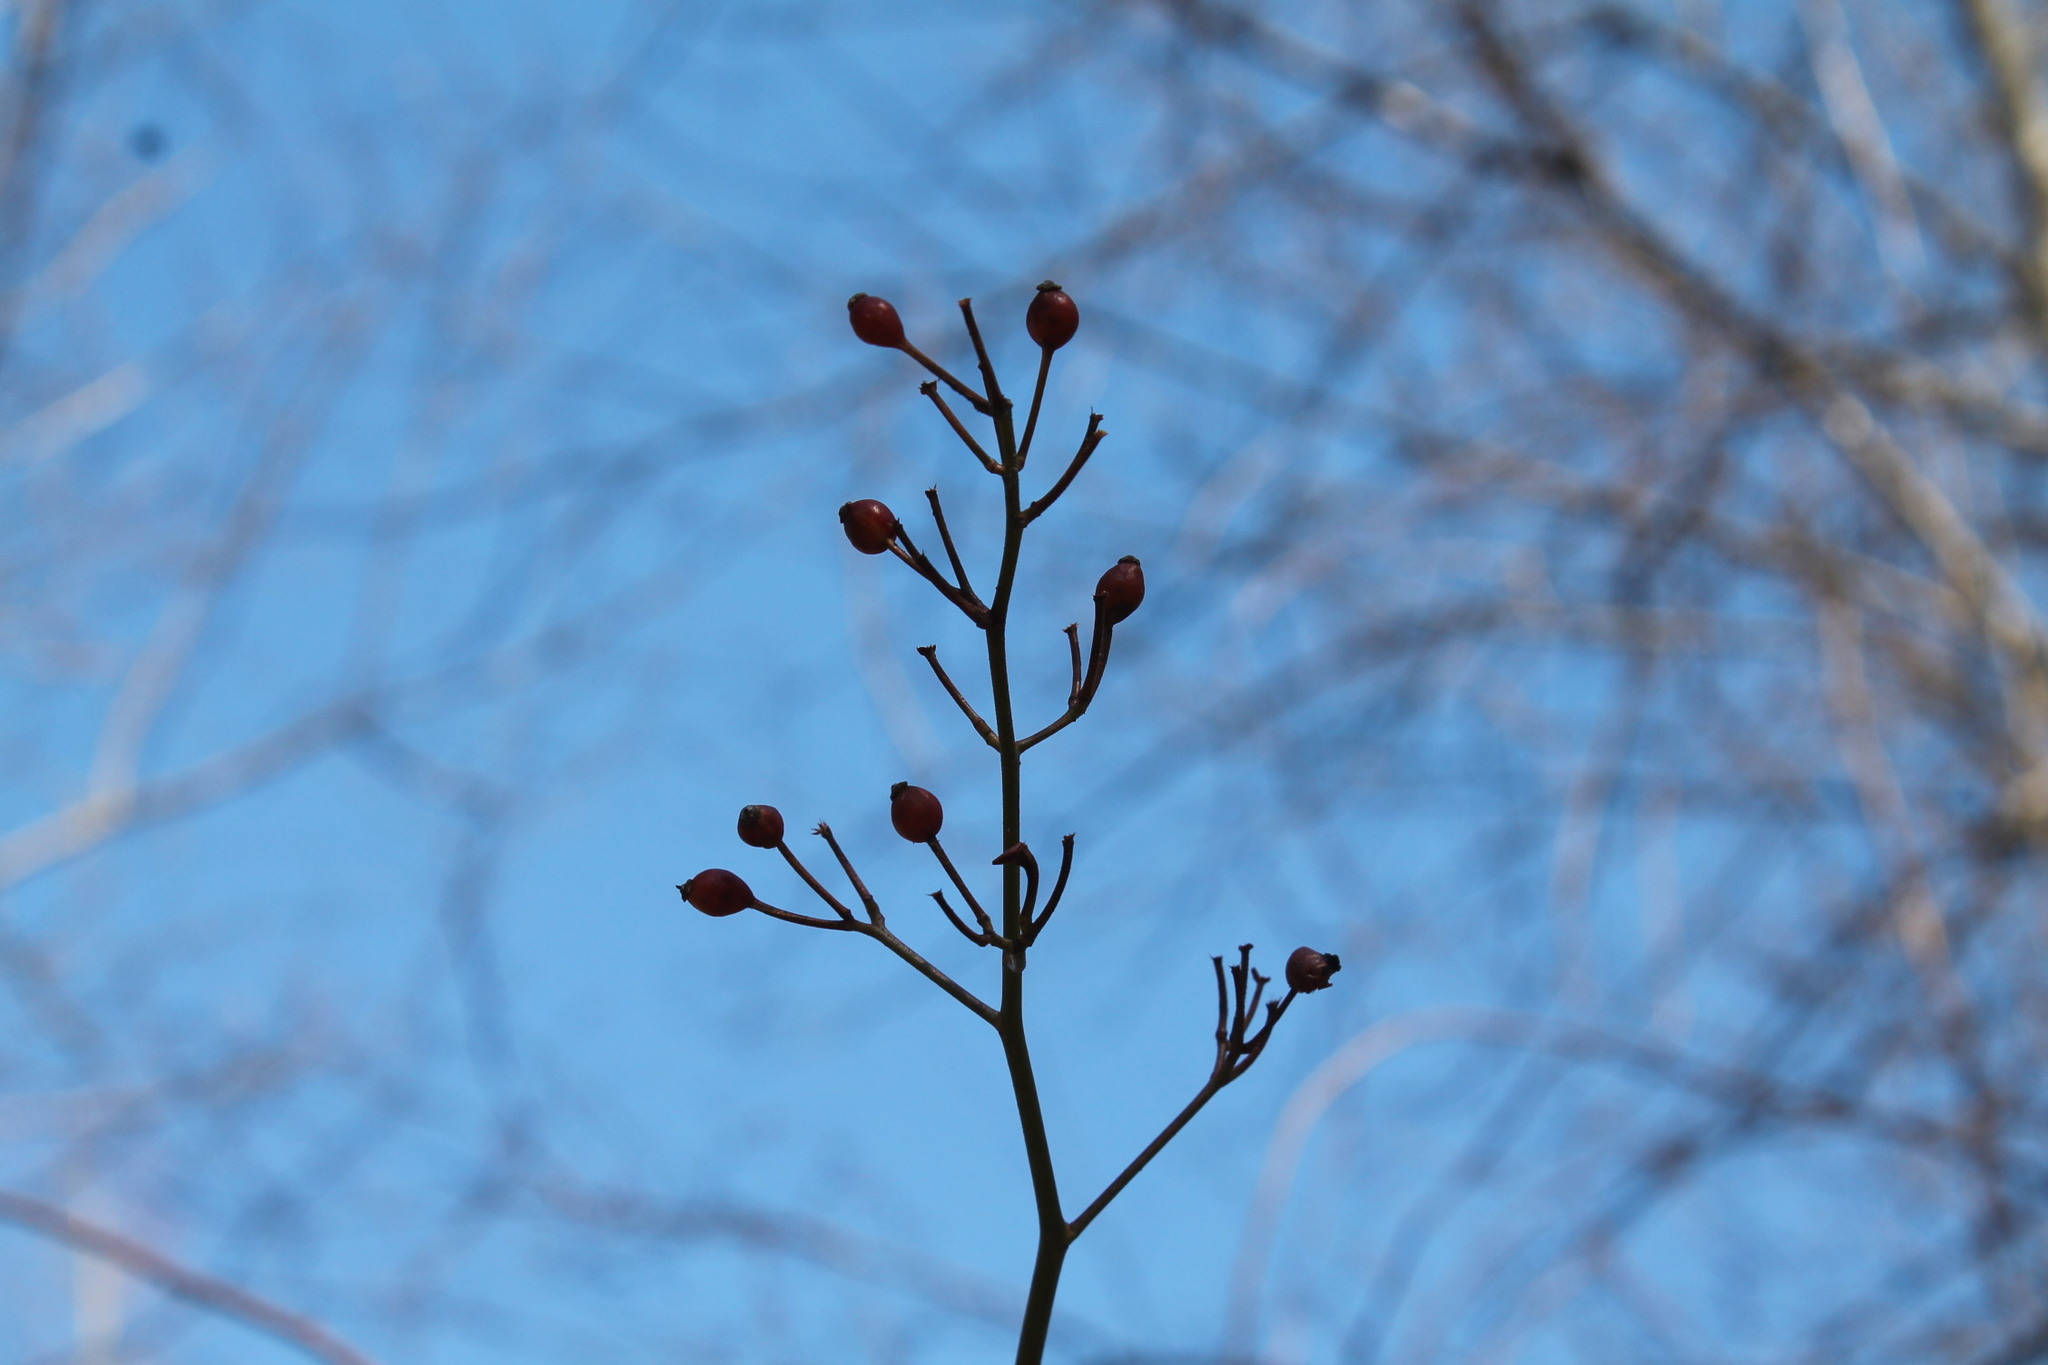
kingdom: Plantae
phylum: Tracheophyta
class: Magnoliopsida
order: Rosales
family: Rosaceae
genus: Rosa
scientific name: Rosa multiflora
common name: Multiflora rose
